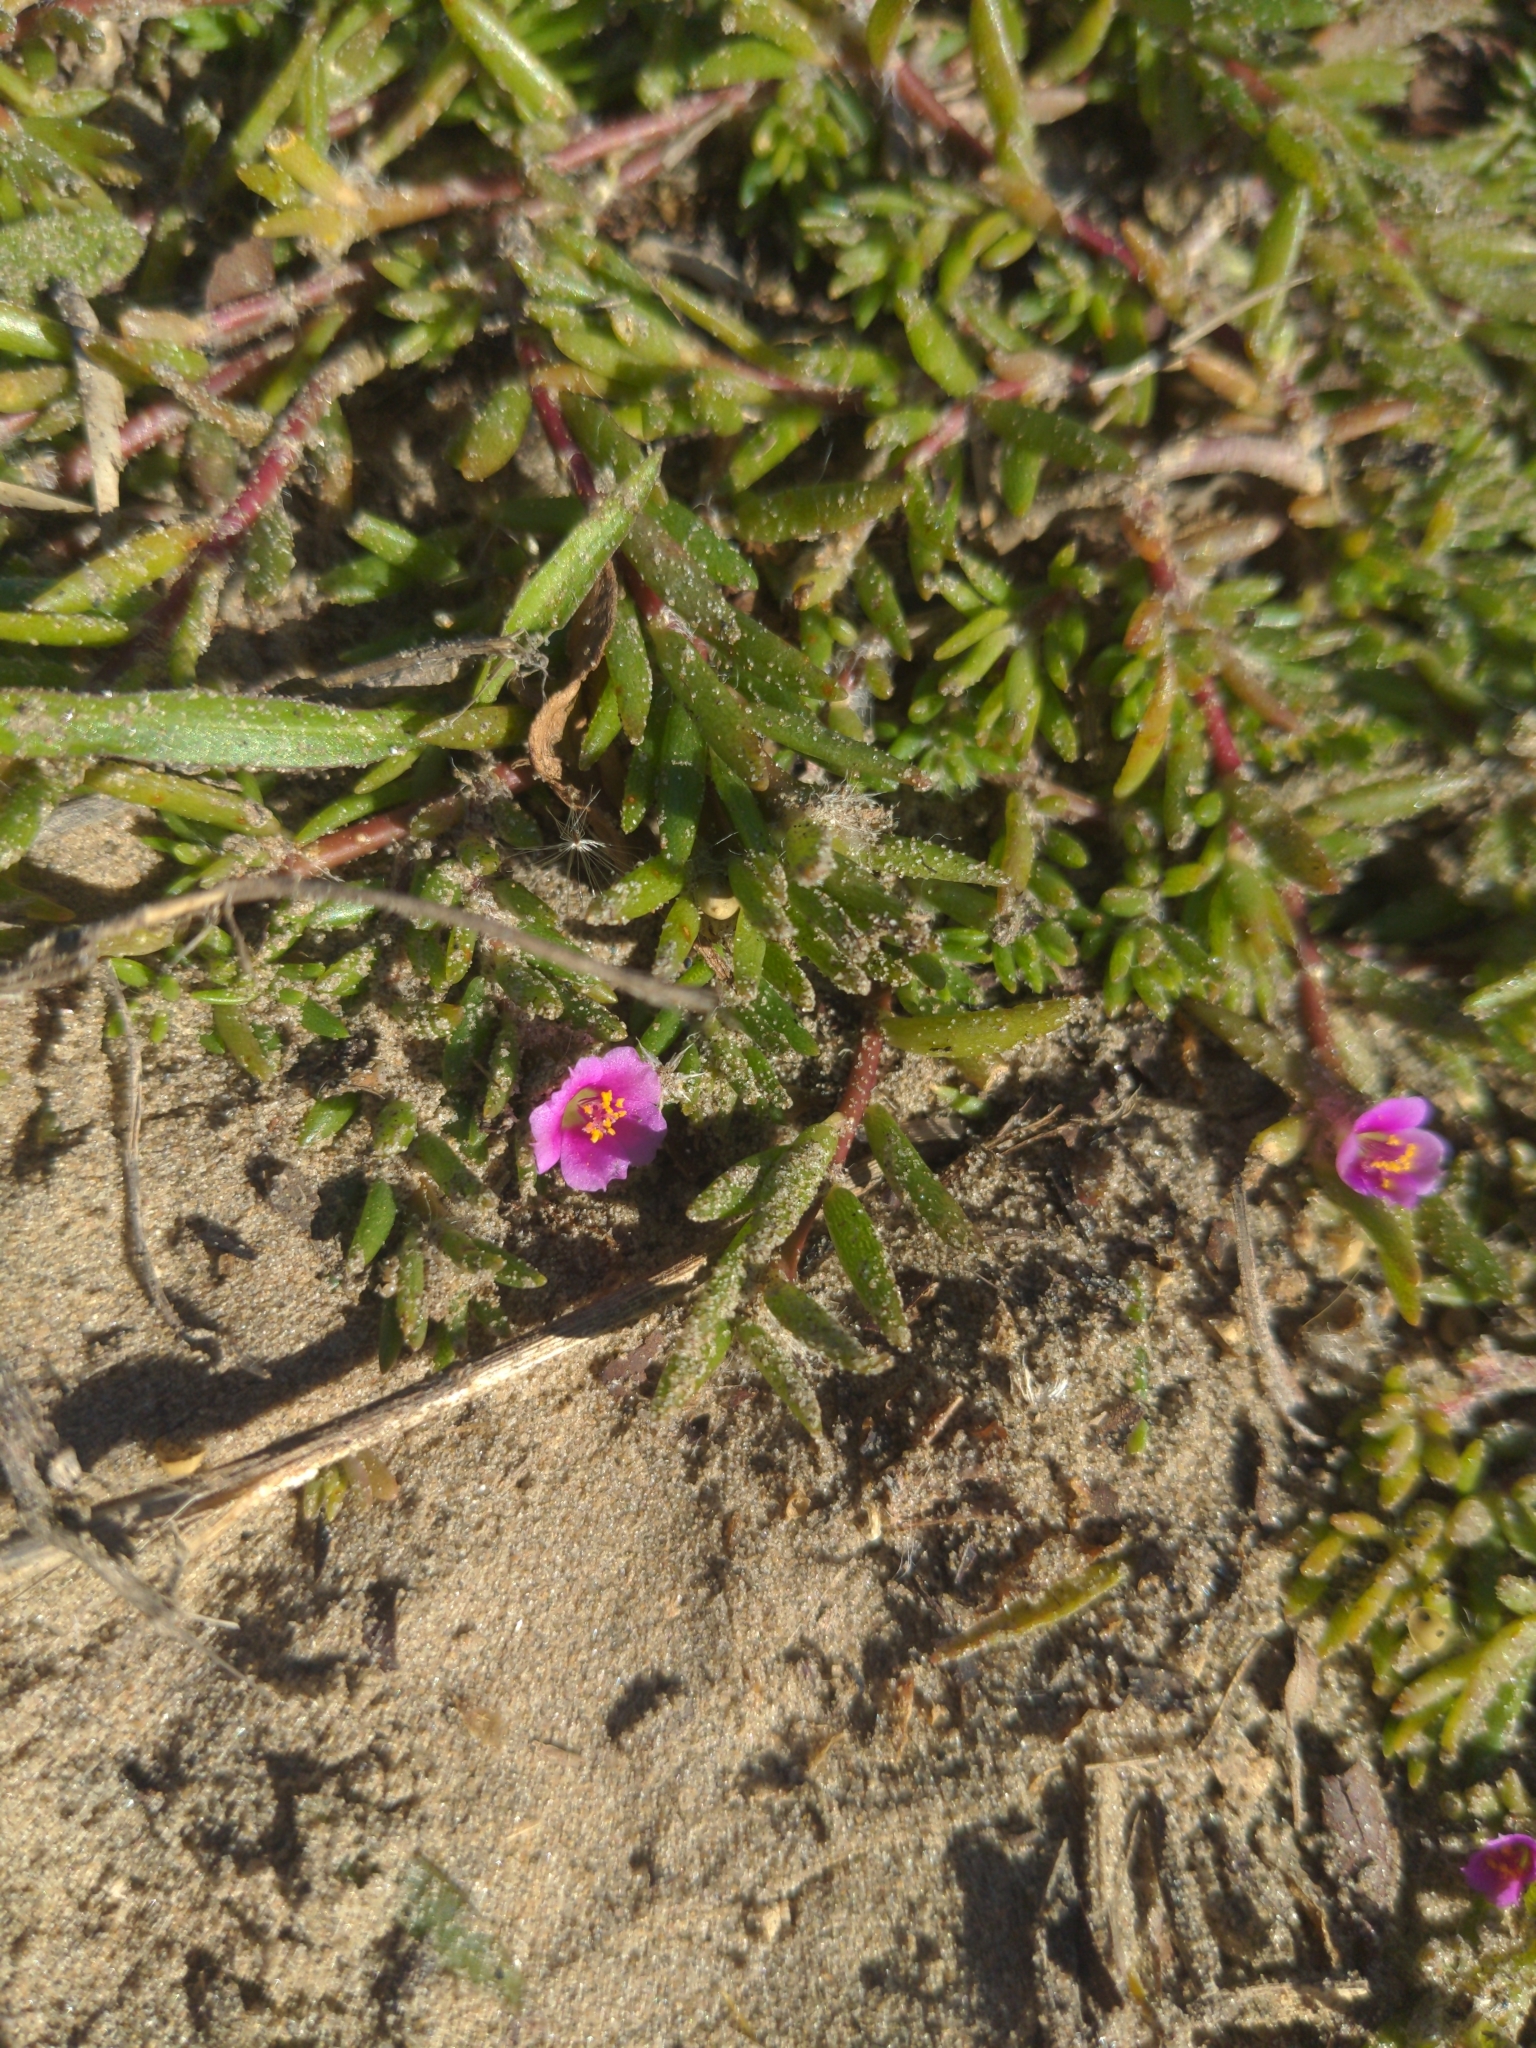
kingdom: Plantae
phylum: Tracheophyta
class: Magnoliopsida
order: Caryophyllales
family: Portulacaceae
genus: Portulaca
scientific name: Portulaca pilosa
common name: Kiss me quick
